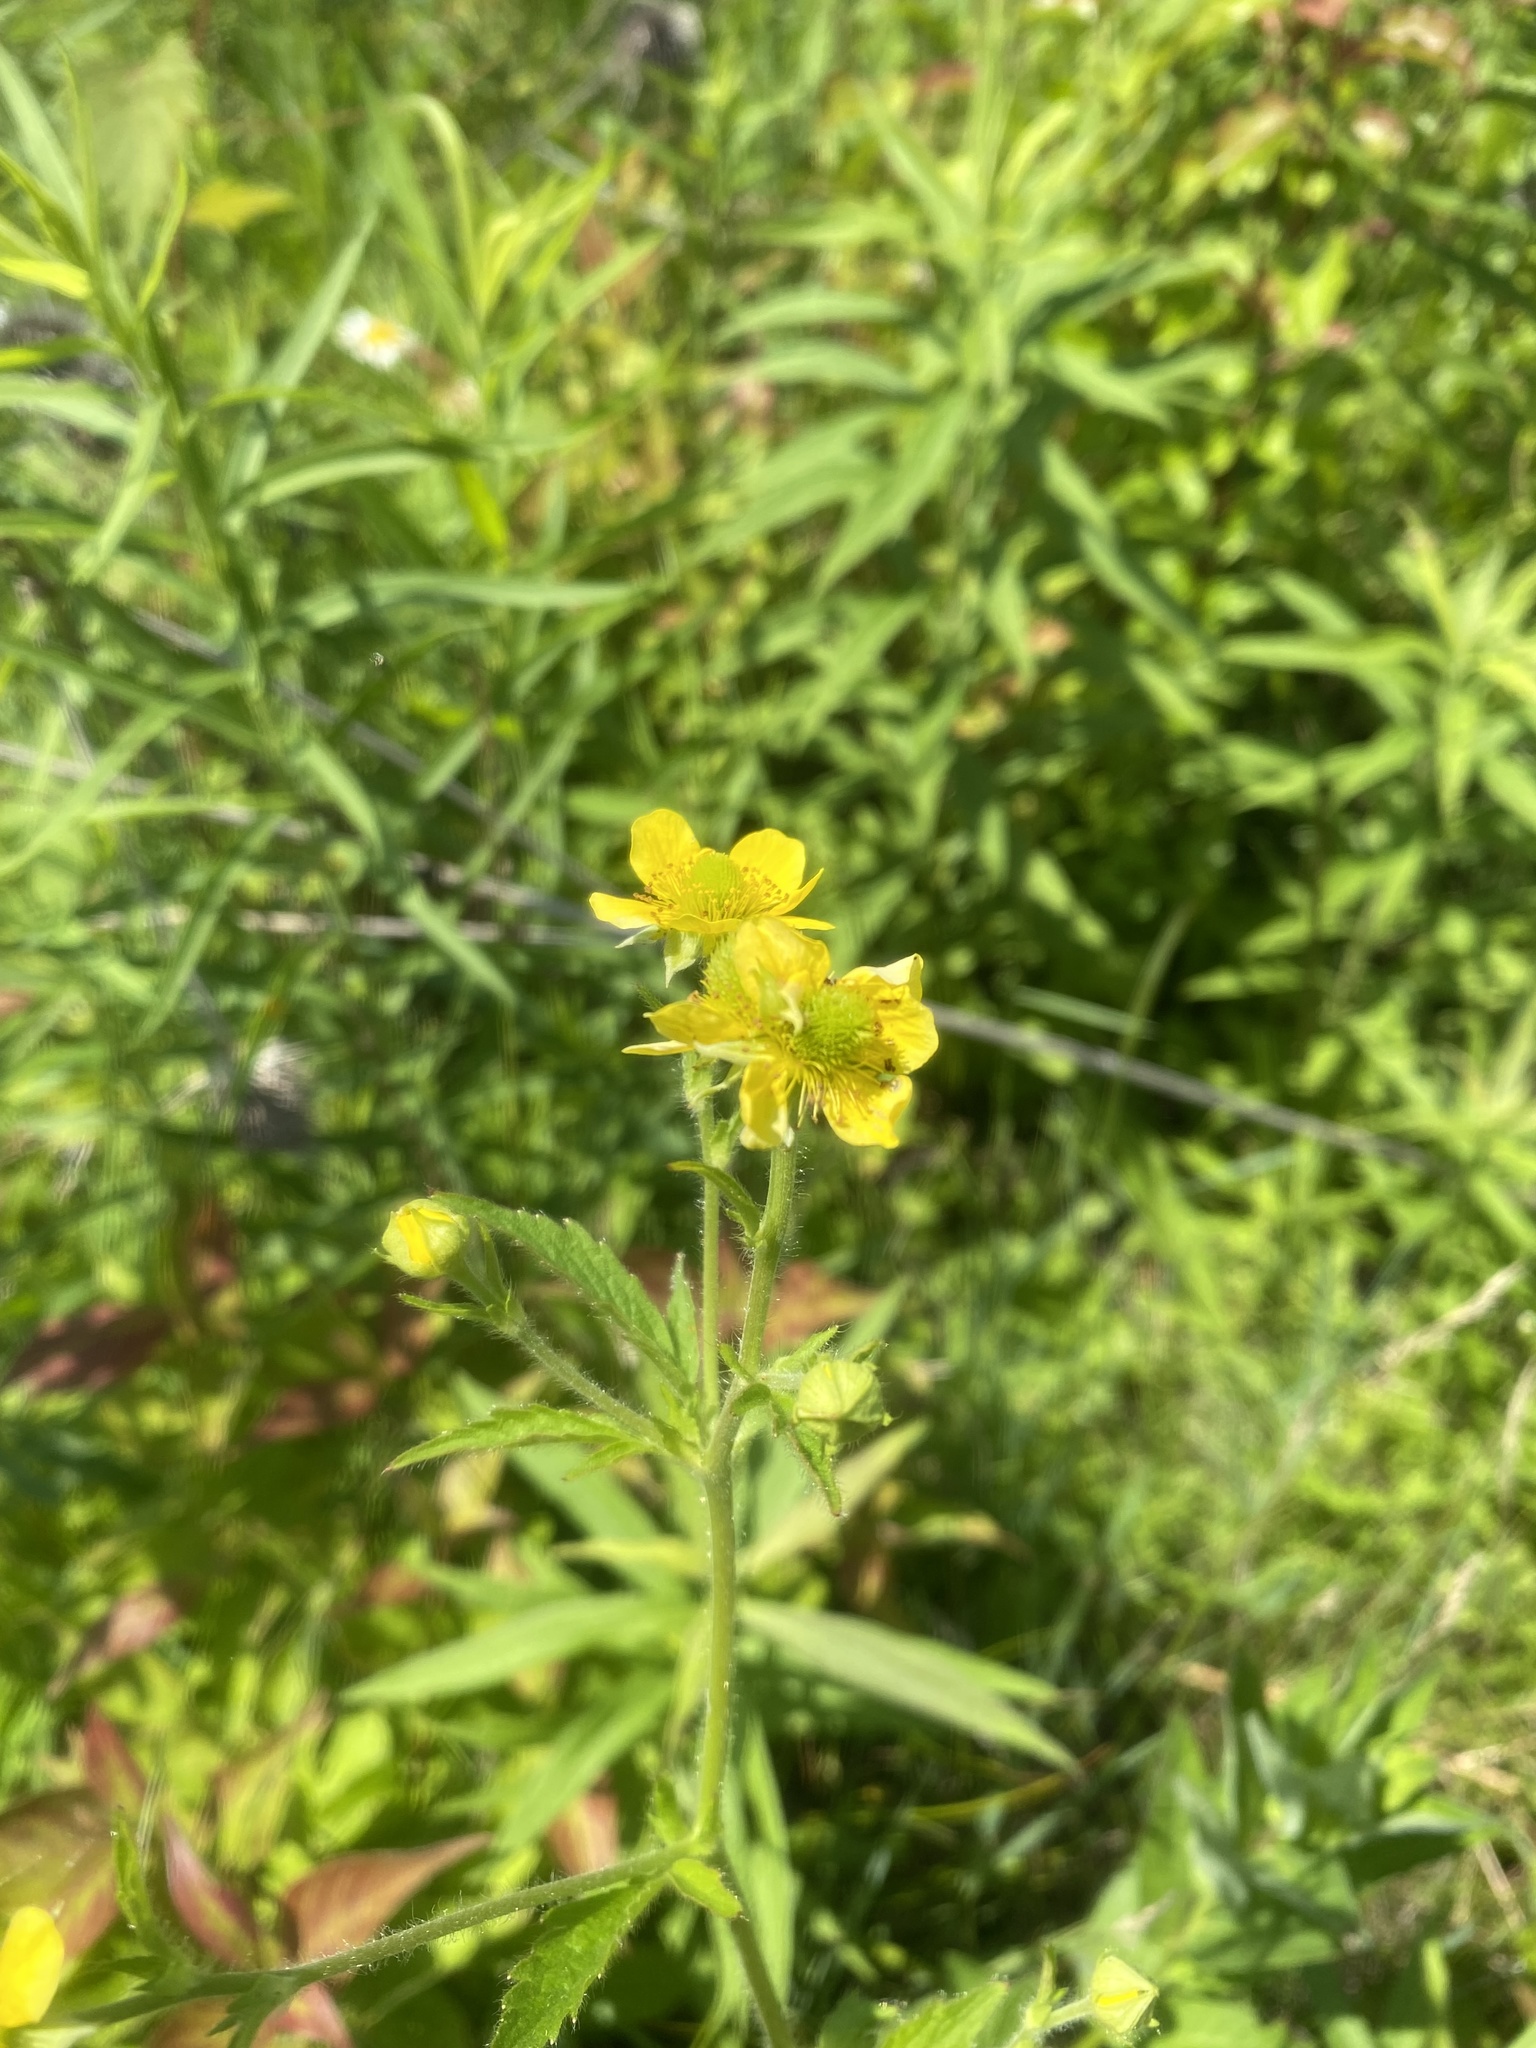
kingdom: Plantae
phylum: Tracheophyta
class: Magnoliopsida
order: Rosales
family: Rosaceae
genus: Geum
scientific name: Geum aleppicum
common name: Yellow avens
